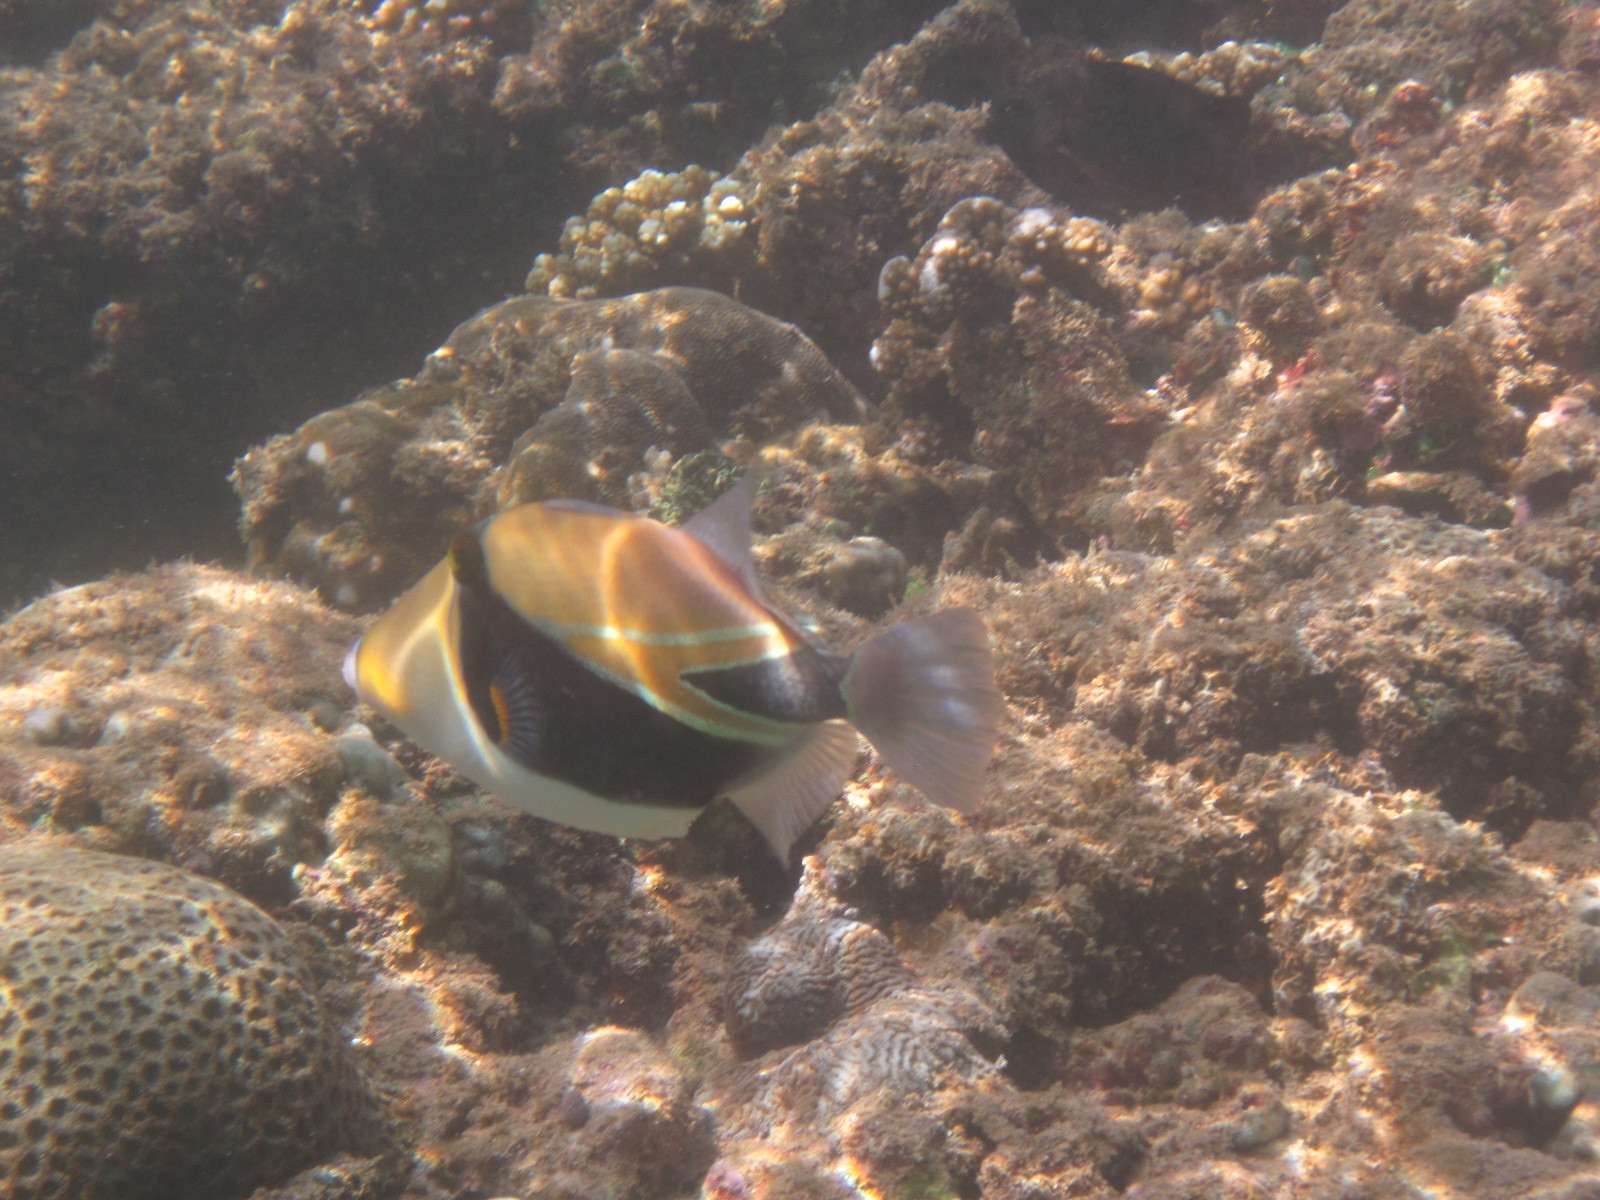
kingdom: Animalia
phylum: Chordata
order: Tetraodontiformes
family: Balistidae
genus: Rhinecanthus
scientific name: Rhinecanthus rectangulus
